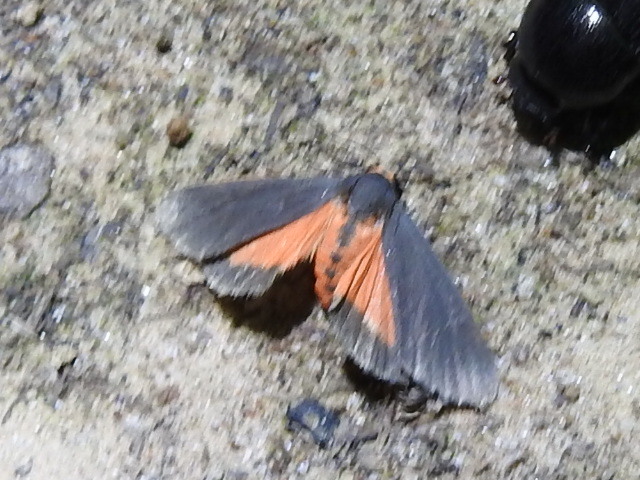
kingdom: Animalia
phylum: Arthropoda
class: Insecta
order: Lepidoptera
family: Erebidae
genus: Virbia
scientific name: Virbia laeta
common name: Joyful holomelina moth
